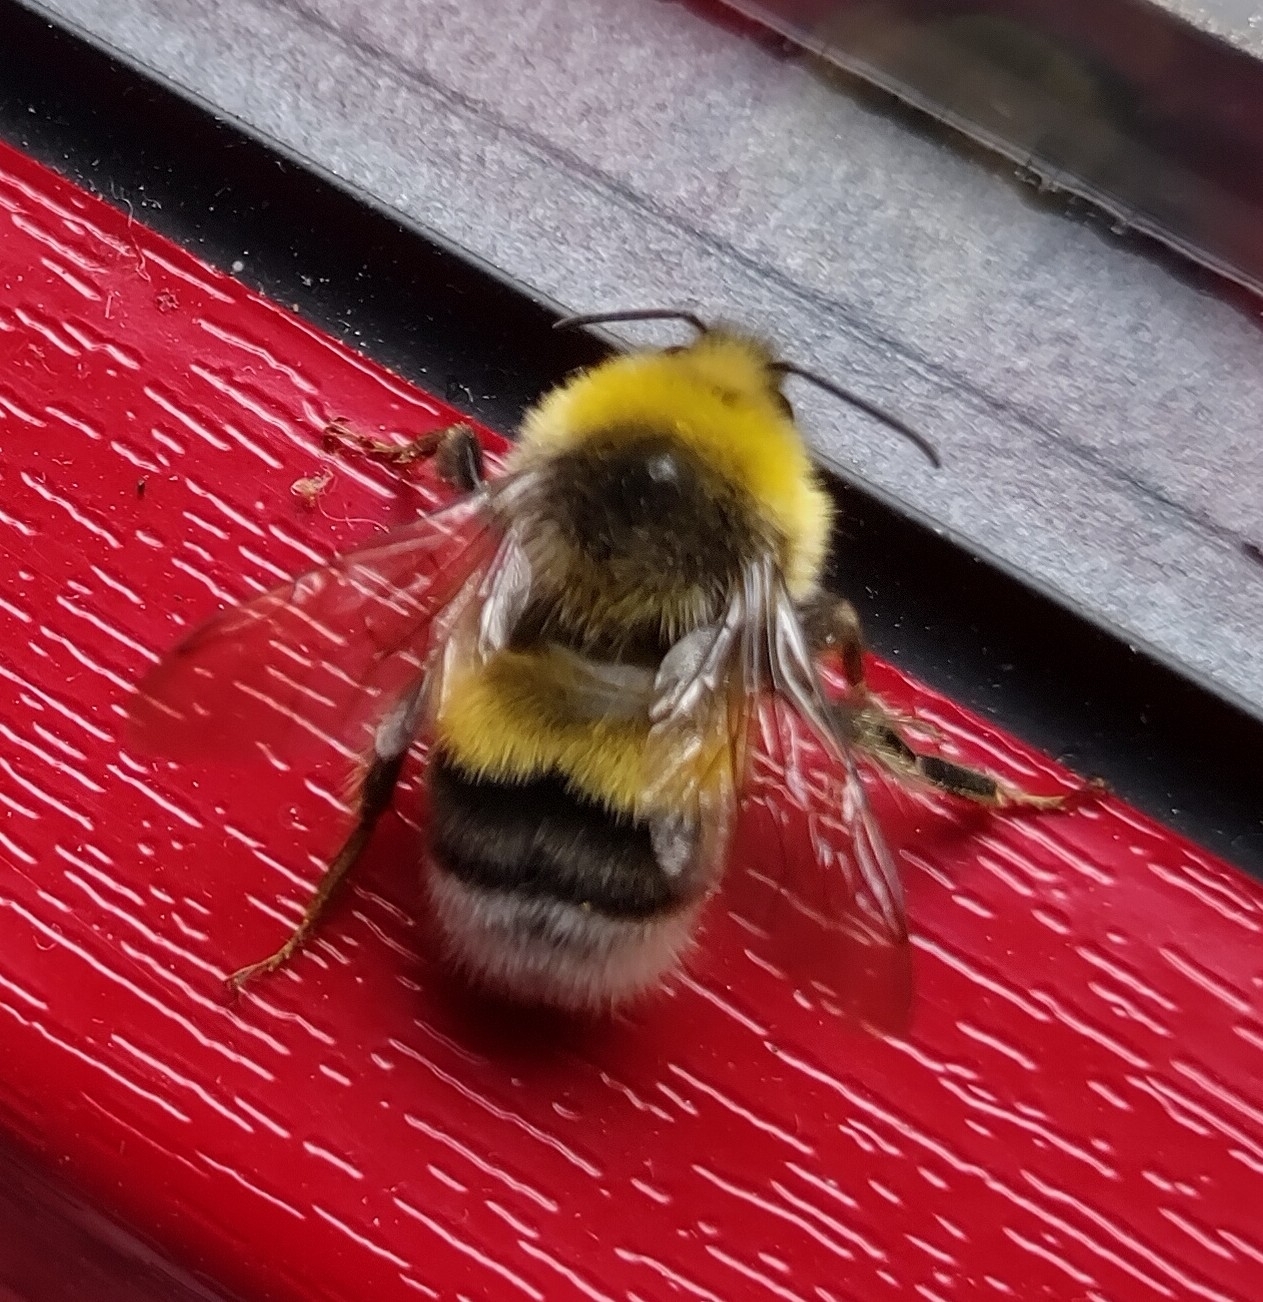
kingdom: Animalia
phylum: Arthropoda
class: Insecta
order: Hymenoptera
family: Apidae
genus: Bombus
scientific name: Bombus lucorum
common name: White-tailed bumblebee
